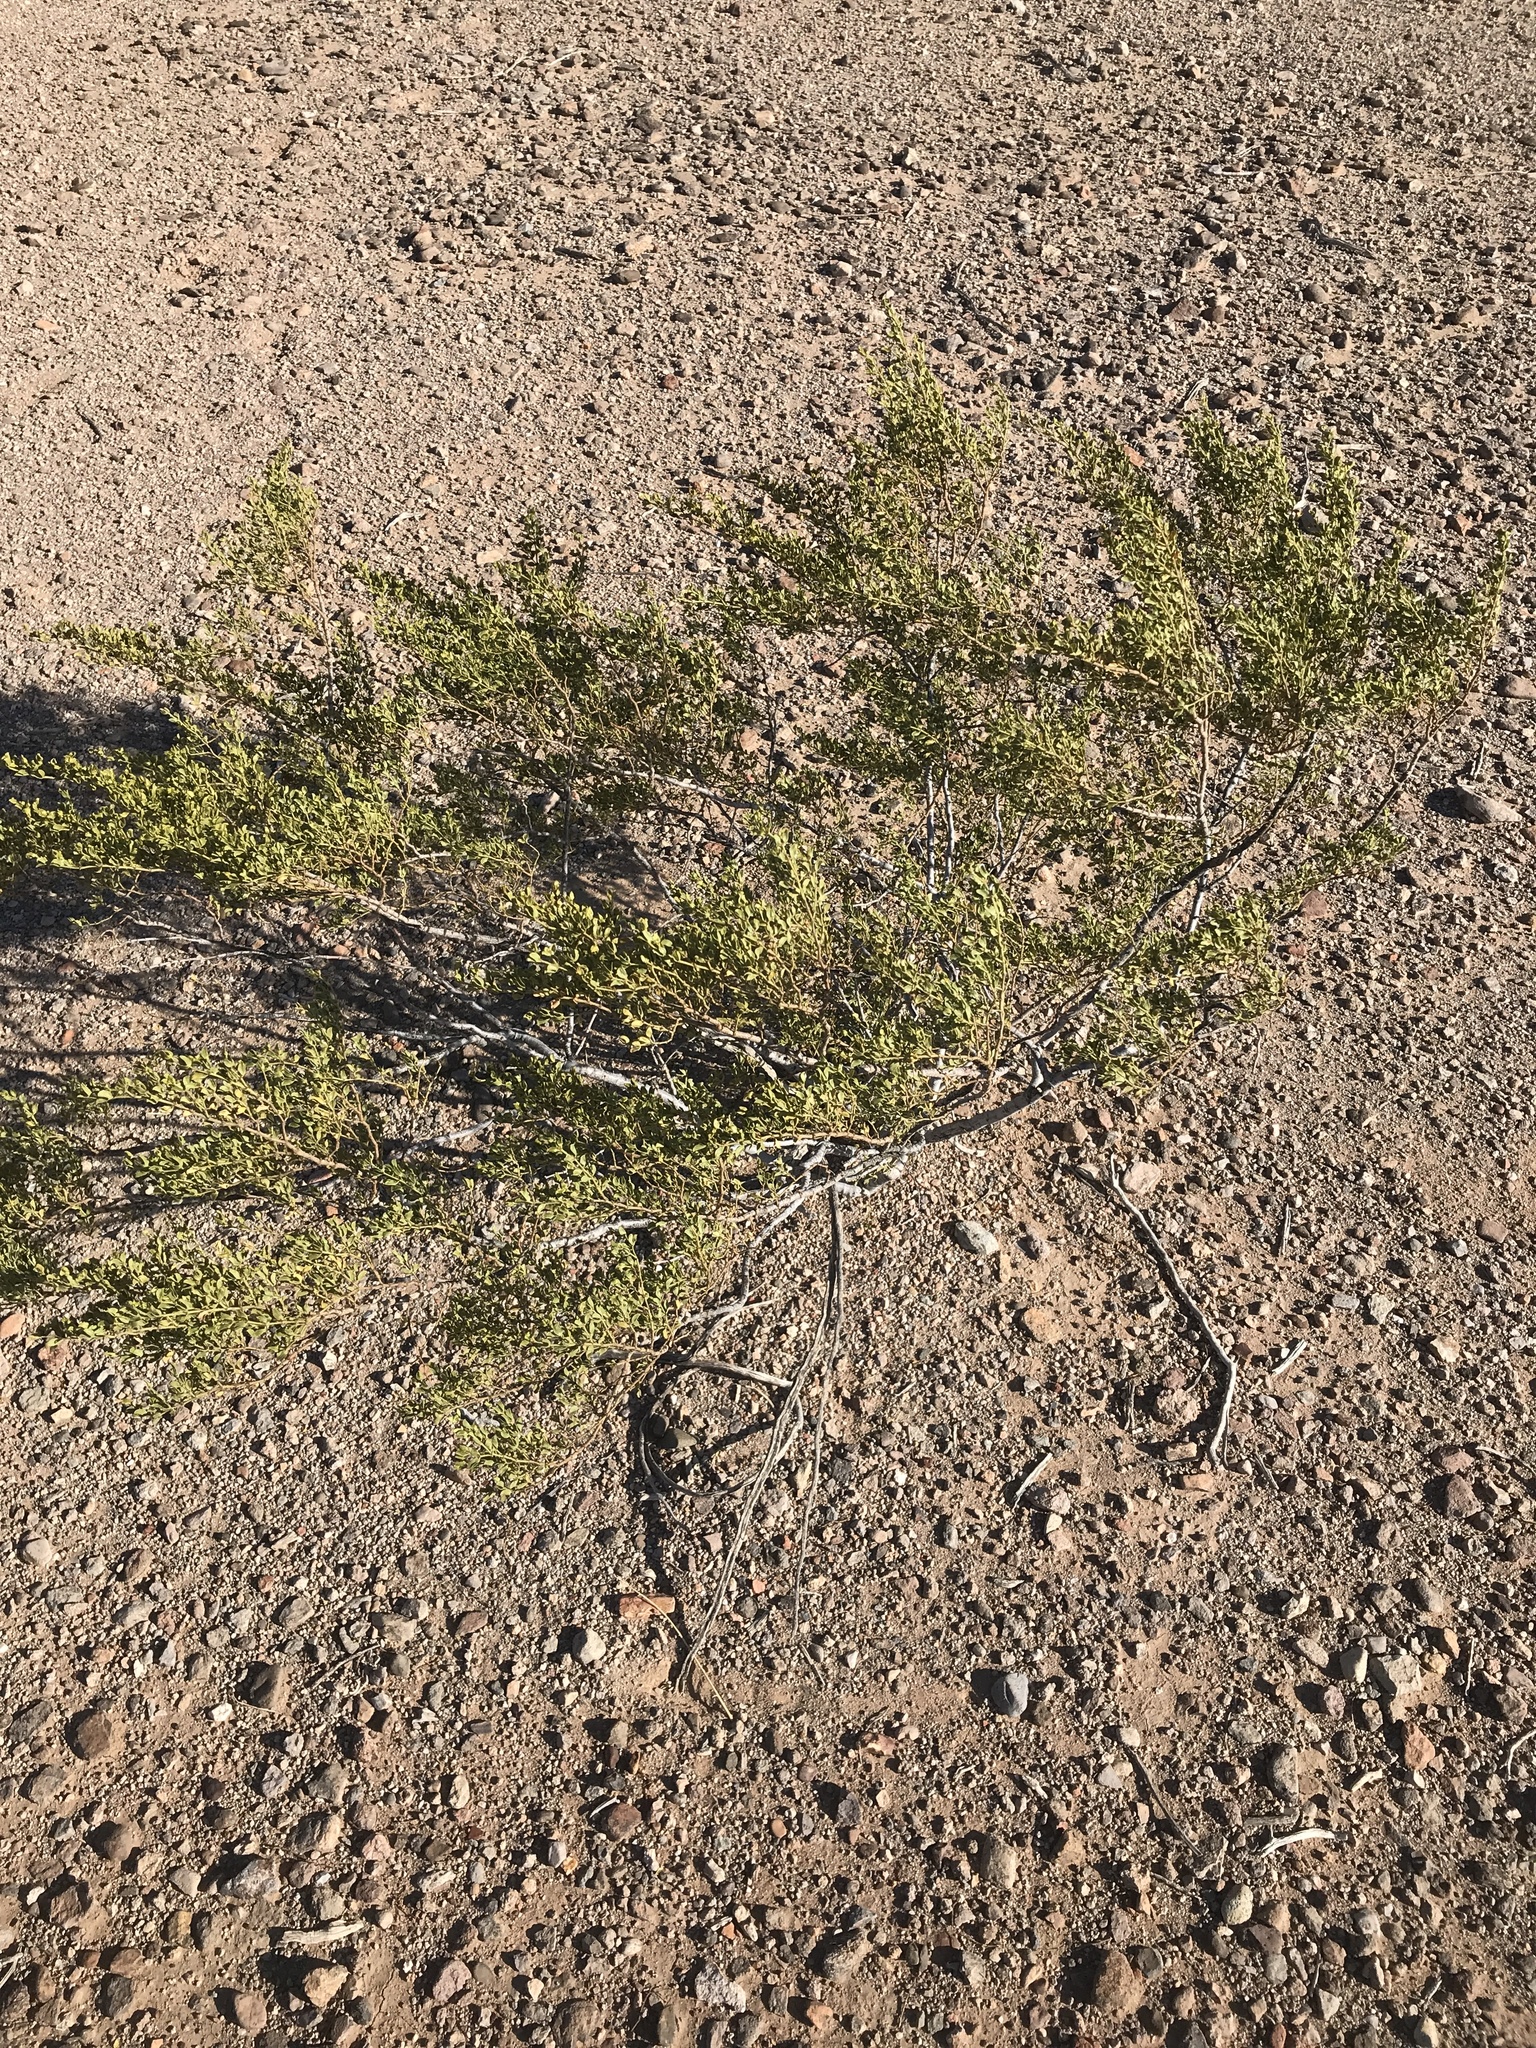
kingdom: Plantae
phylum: Tracheophyta
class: Magnoliopsida
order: Zygophyllales
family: Zygophyllaceae
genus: Larrea
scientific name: Larrea tridentata
